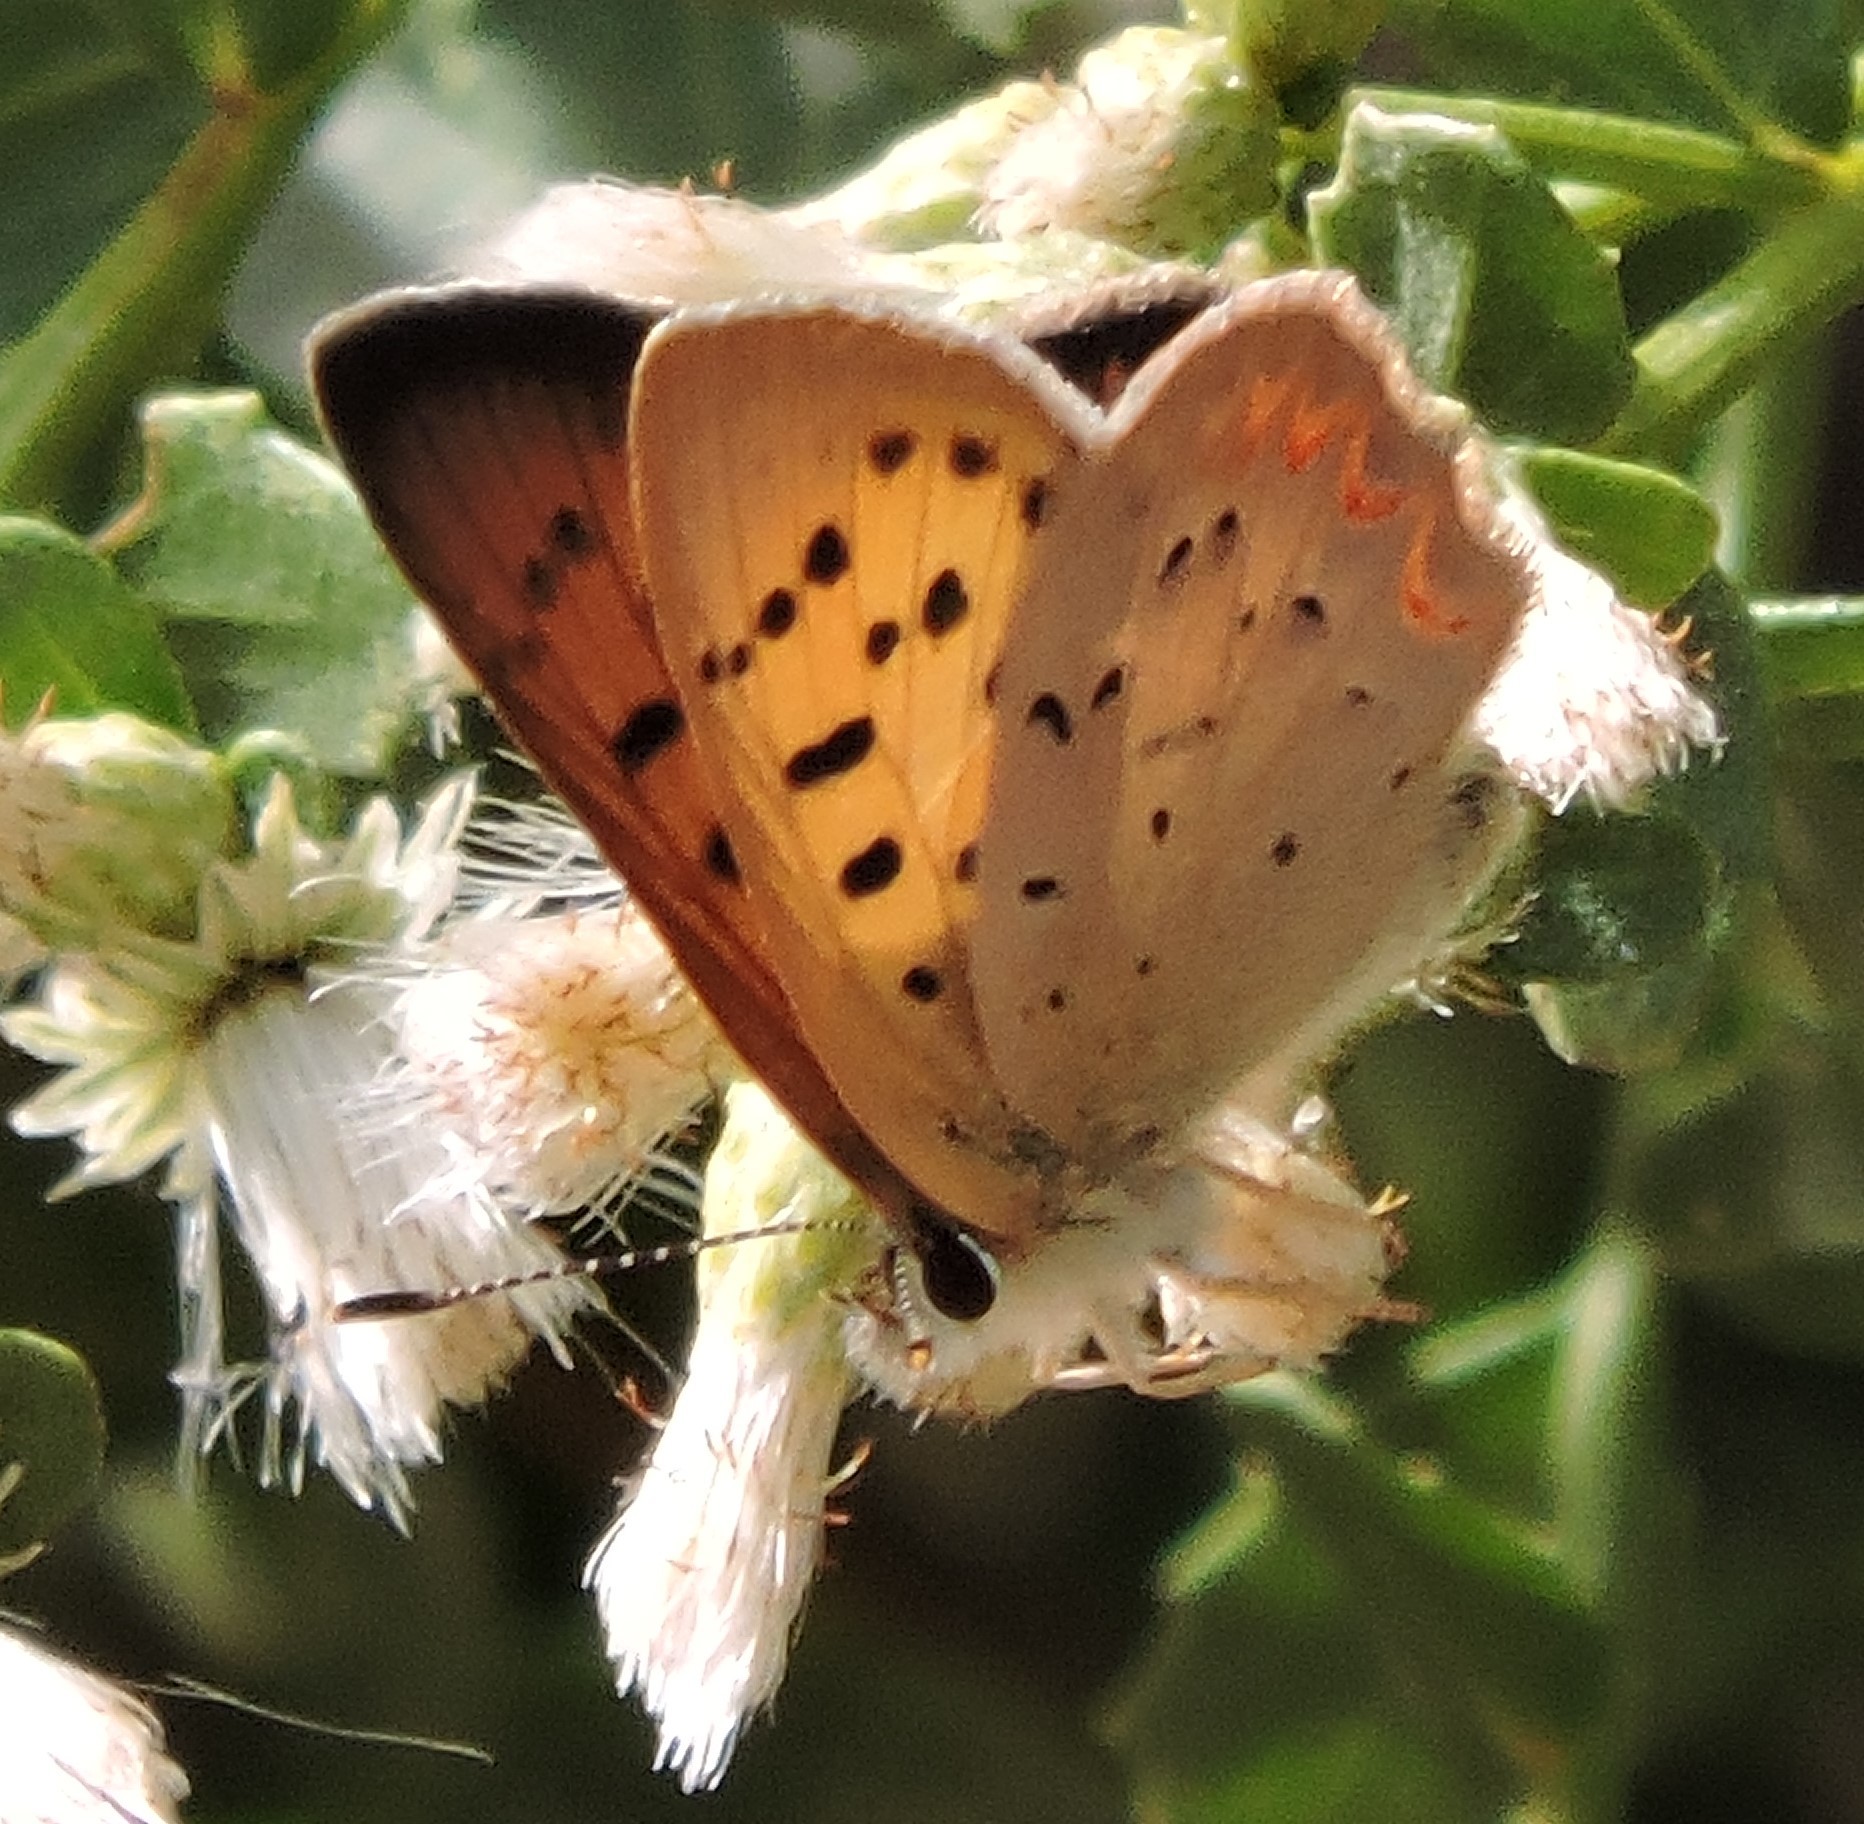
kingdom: Animalia
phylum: Arthropoda
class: Insecta
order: Lepidoptera
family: Lycaenidae
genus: Tharsalea
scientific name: Tharsalea helloides
